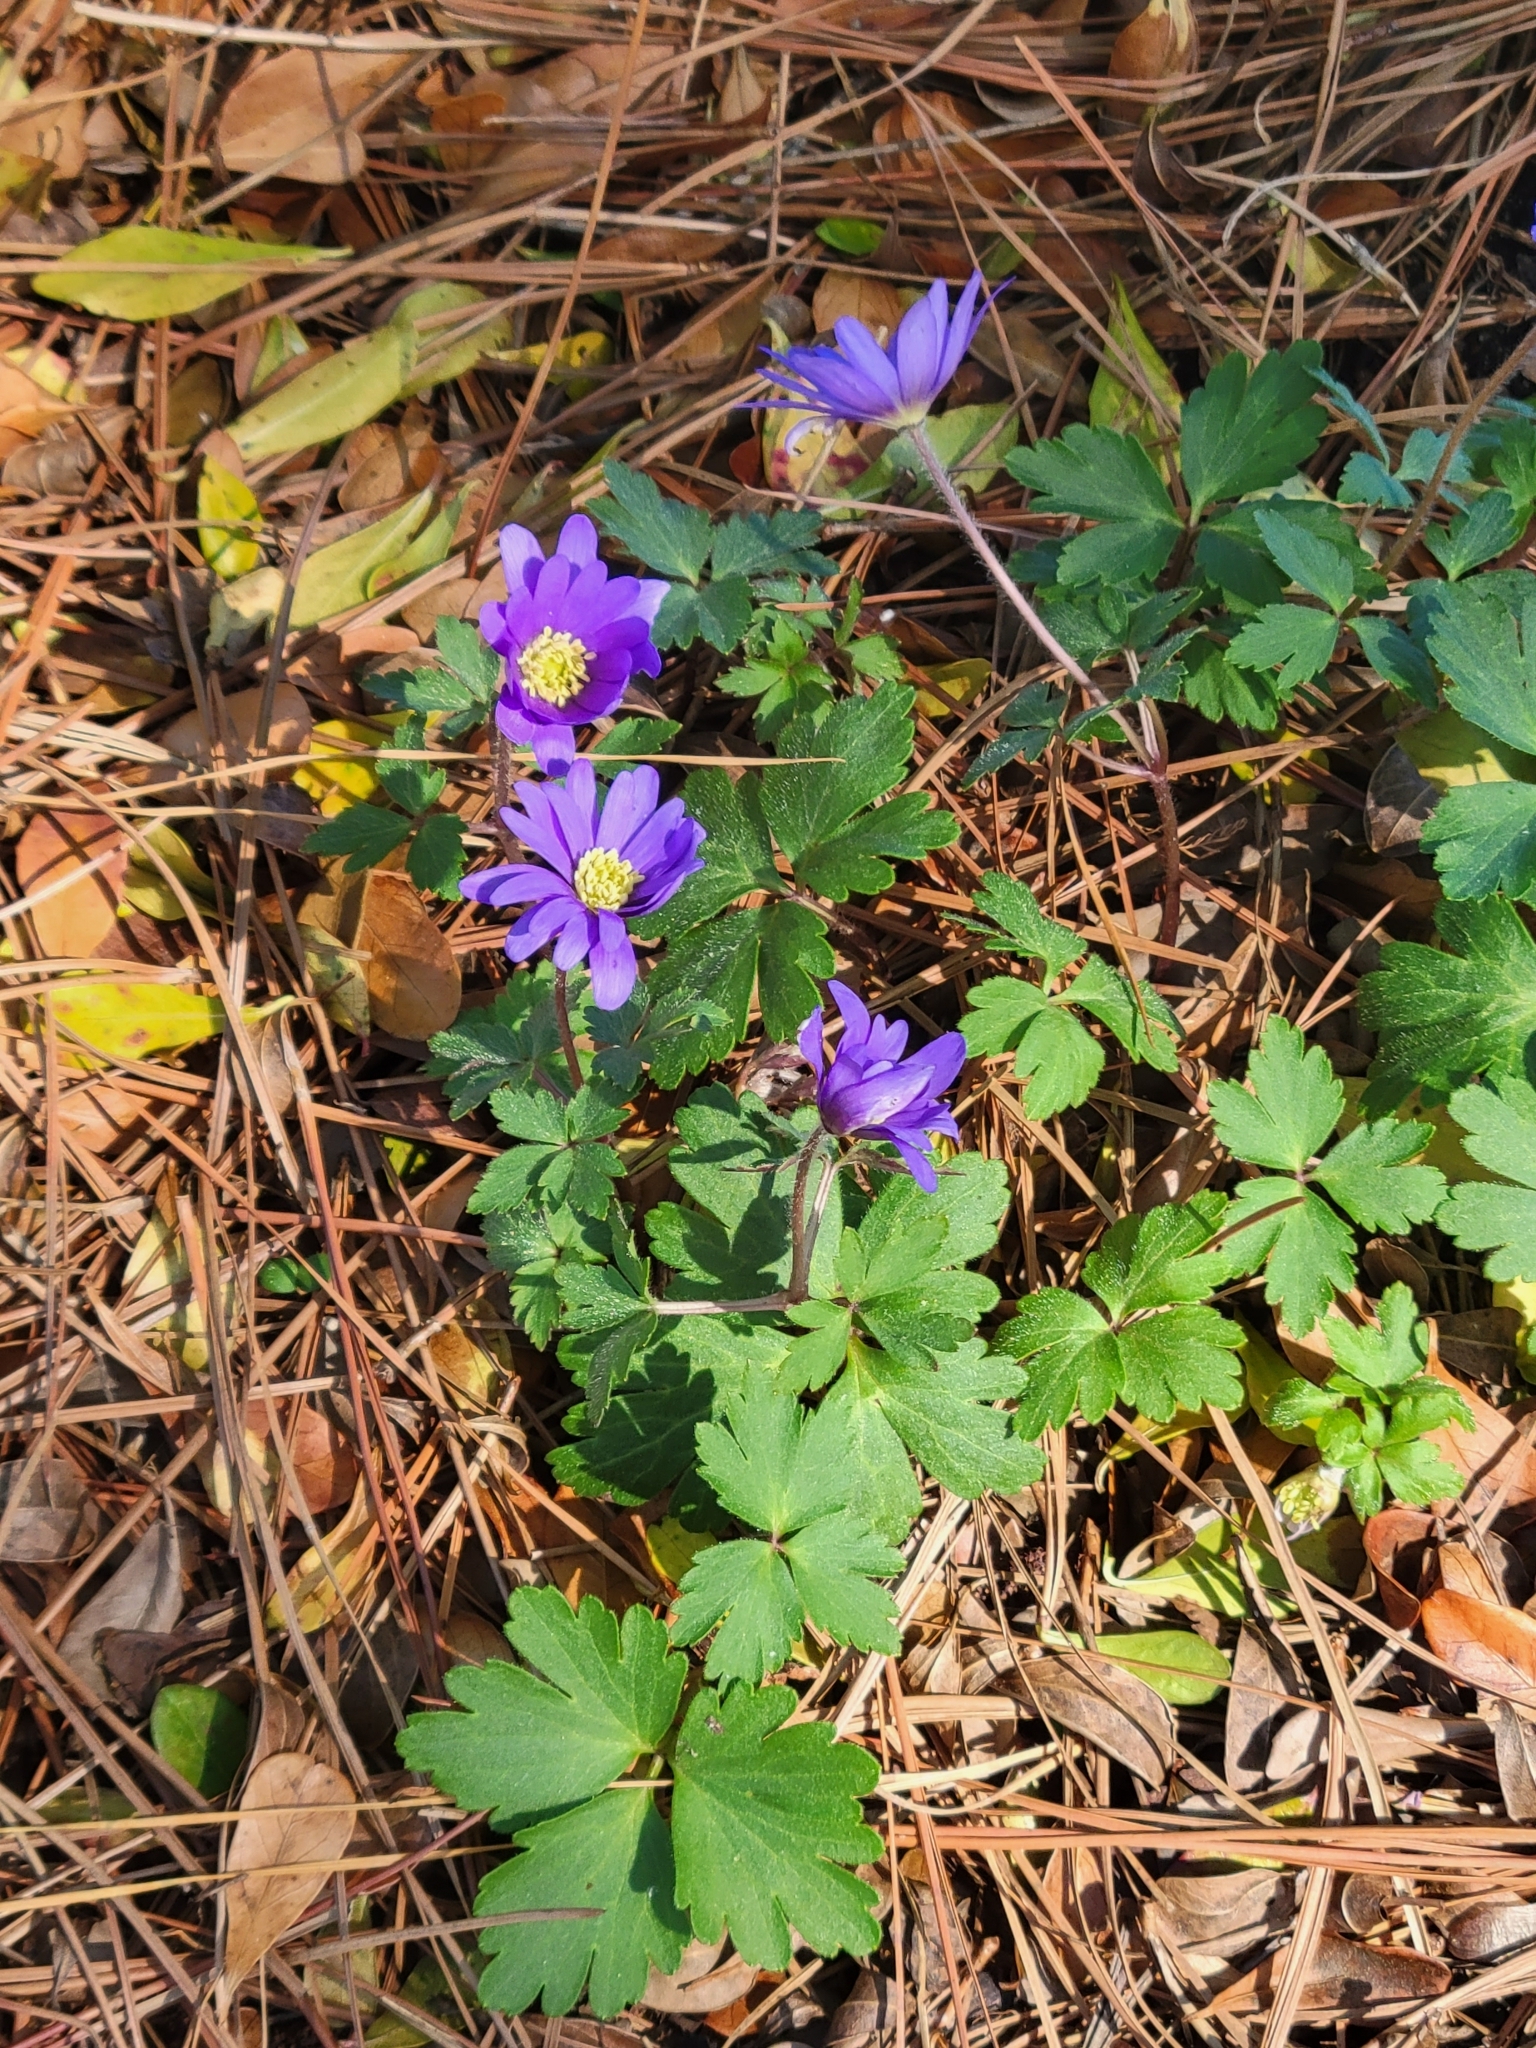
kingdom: Plantae
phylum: Tracheophyta
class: Magnoliopsida
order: Ranunculales
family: Ranunculaceae
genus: Anemone
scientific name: Anemone blanda
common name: Balkan anemone
